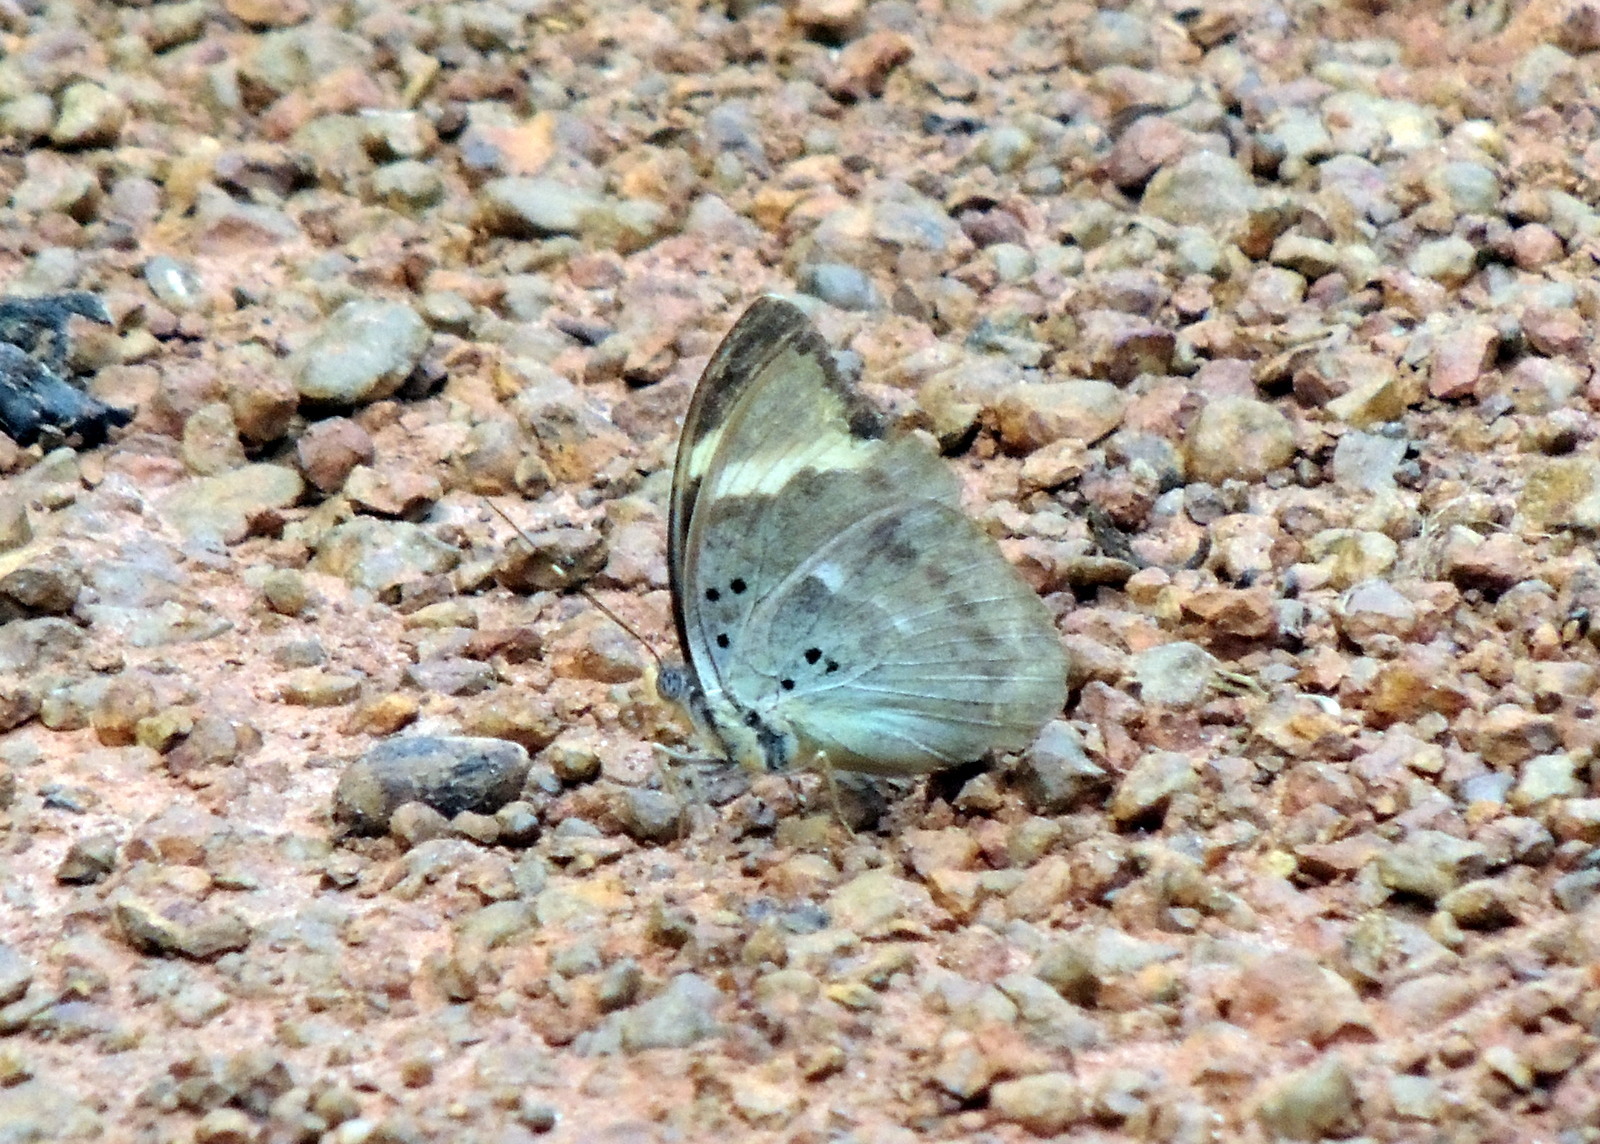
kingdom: Animalia
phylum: Arthropoda
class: Insecta
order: Lepidoptera
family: Nymphalidae
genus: Euphaedra
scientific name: Euphaedra medon
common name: Widespread forester
